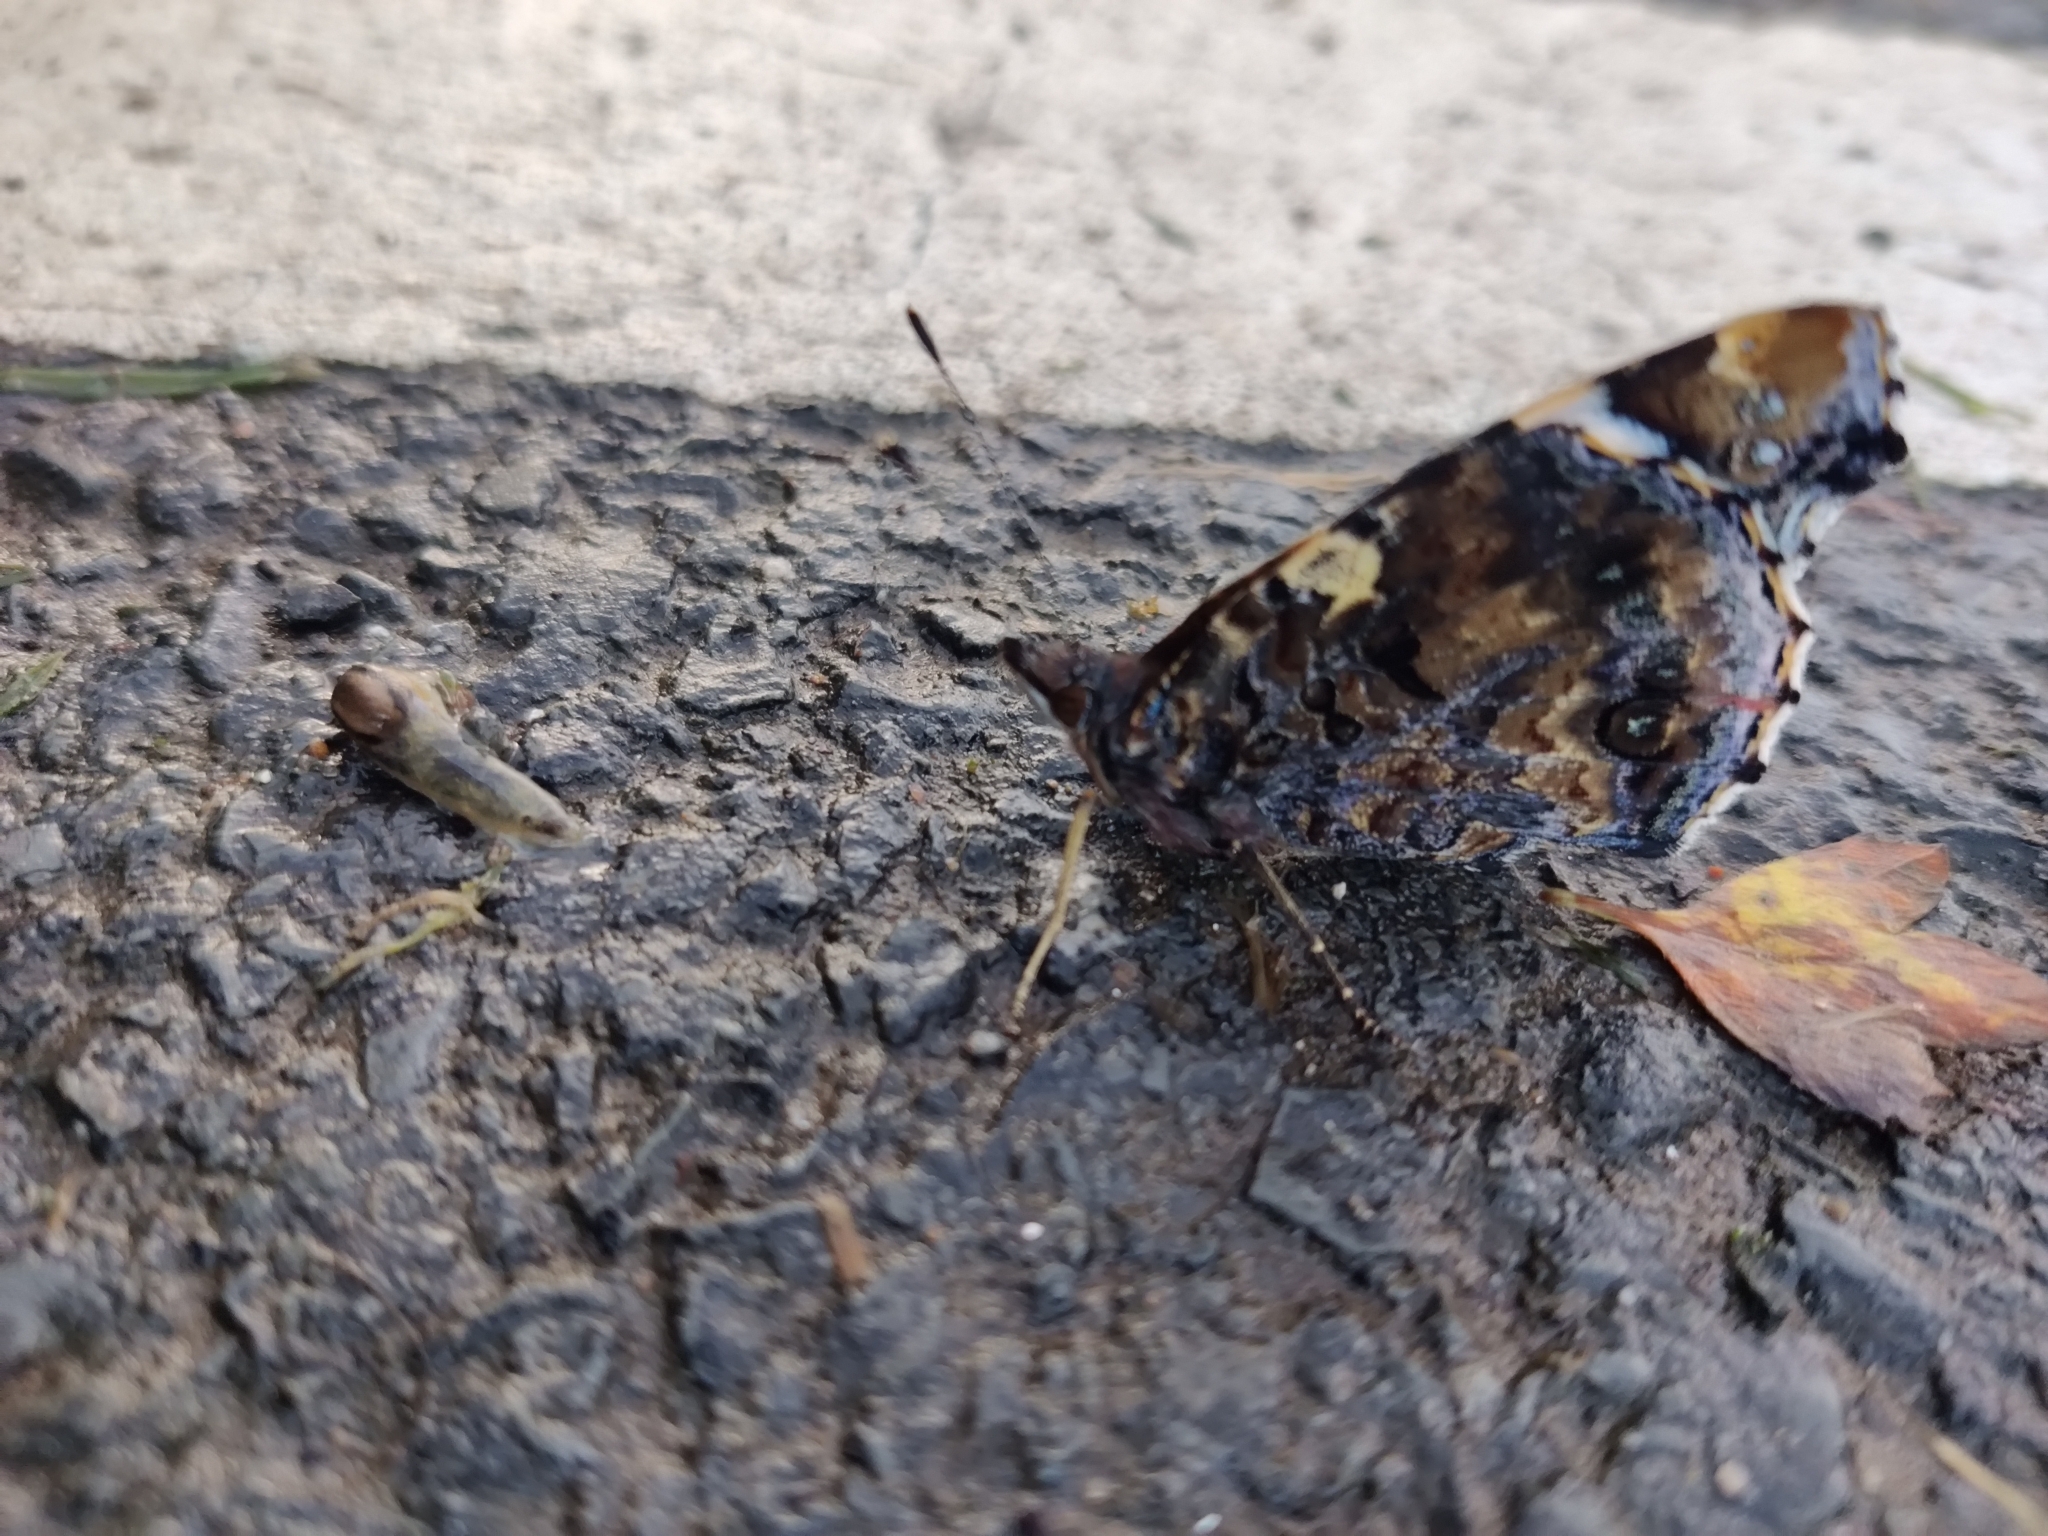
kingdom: Animalia
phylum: Arthropoda
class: Insecta
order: Lepidoptera
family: Nymphalidae
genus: Vanessa
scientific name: Vanessa atalanta
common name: Red admiral
